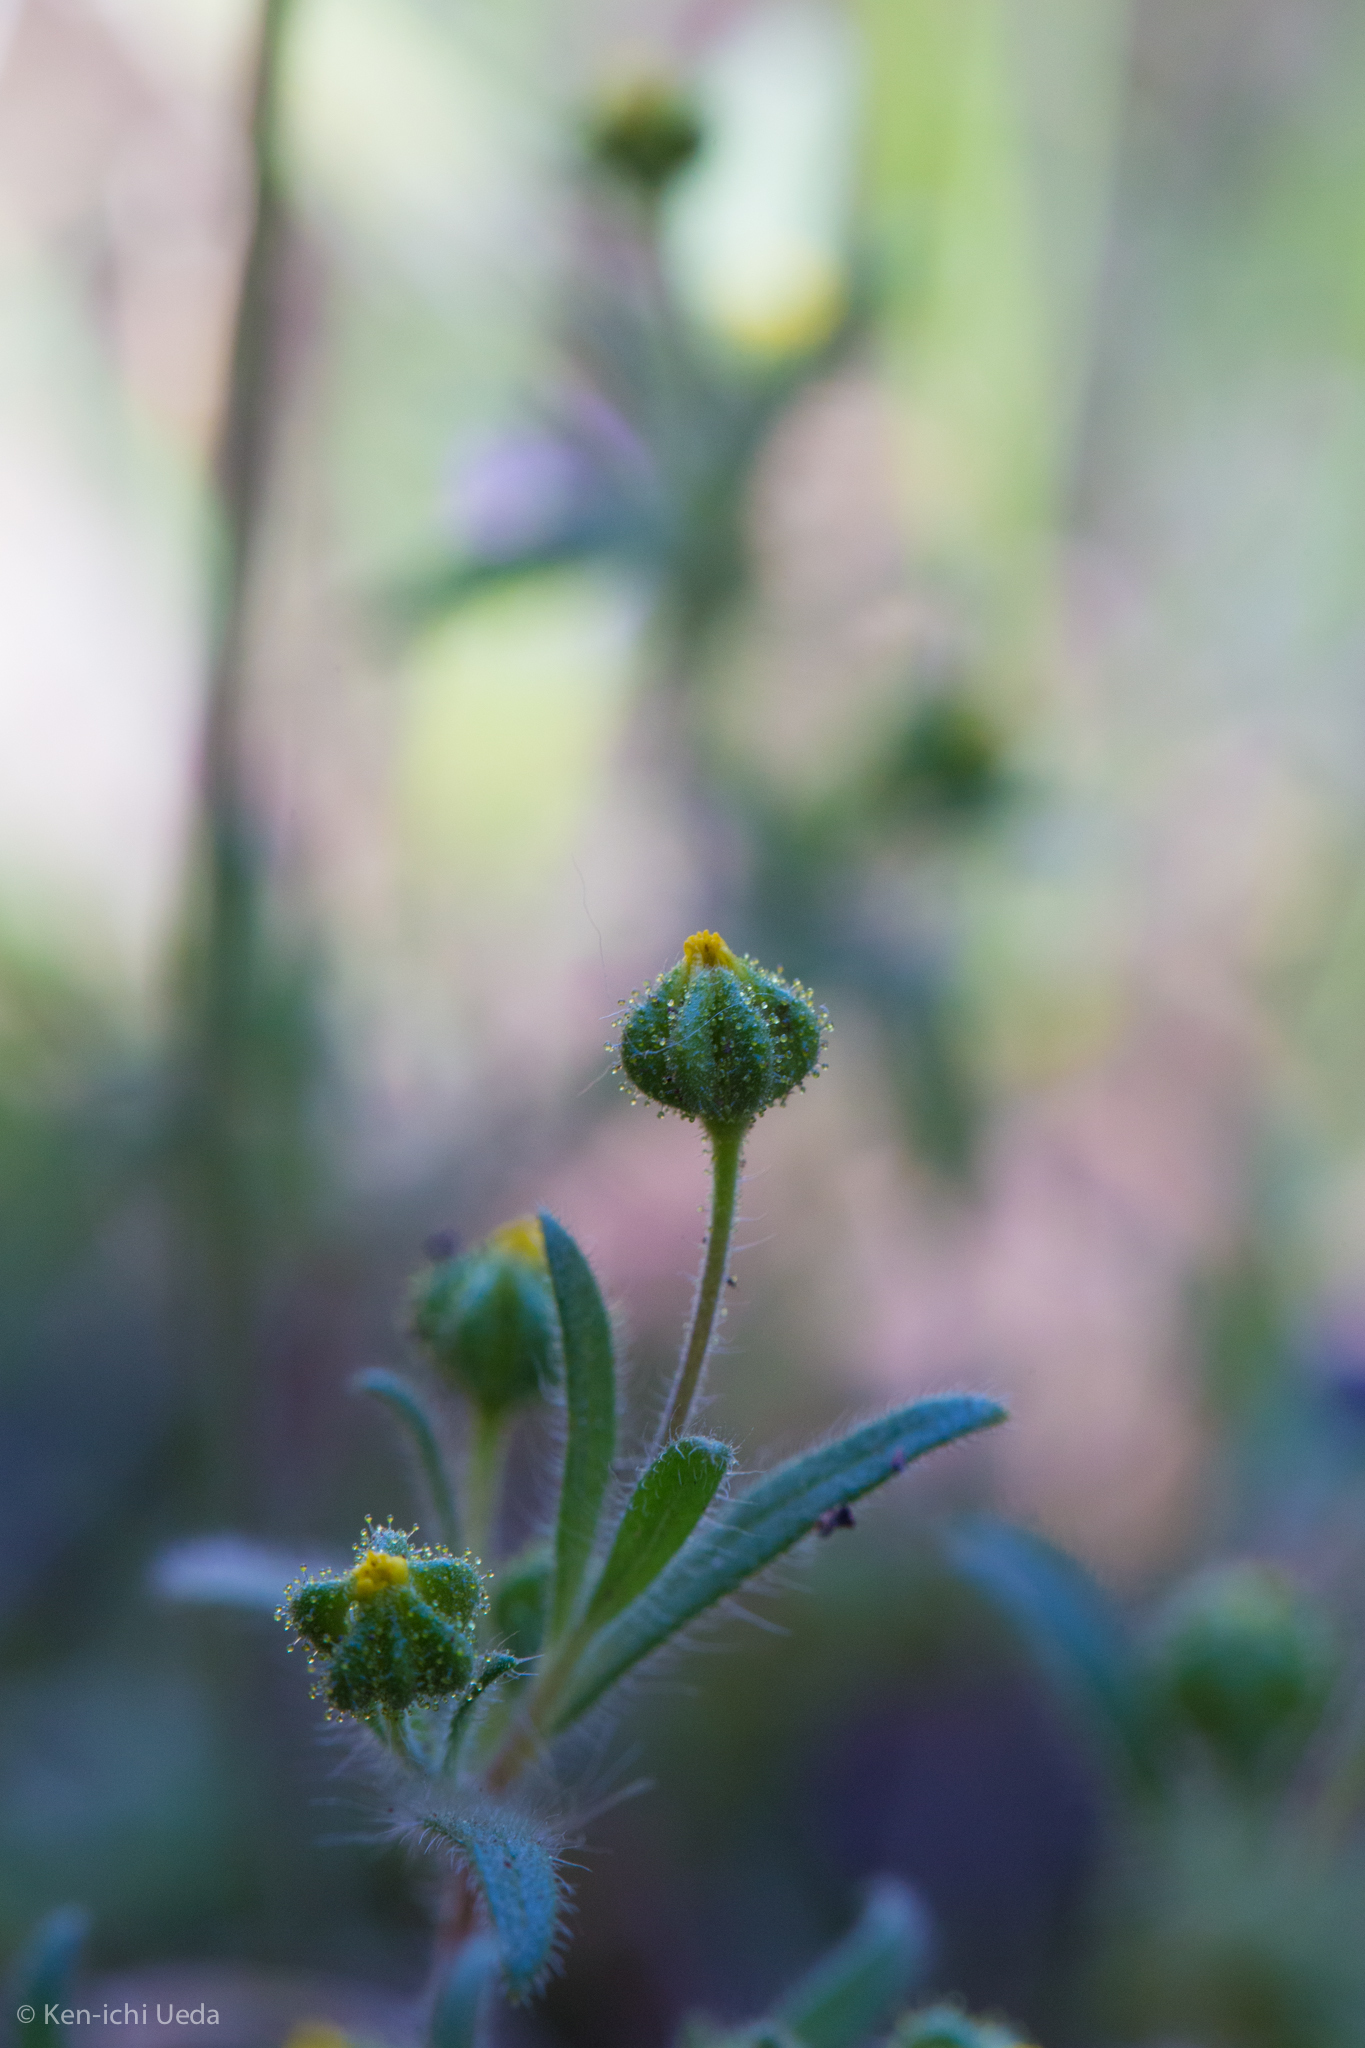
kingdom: Plantae
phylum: Tracheophyta
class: Magnoliopsida
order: Asterales
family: Asteraceae
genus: Madia
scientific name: Madia exigua
